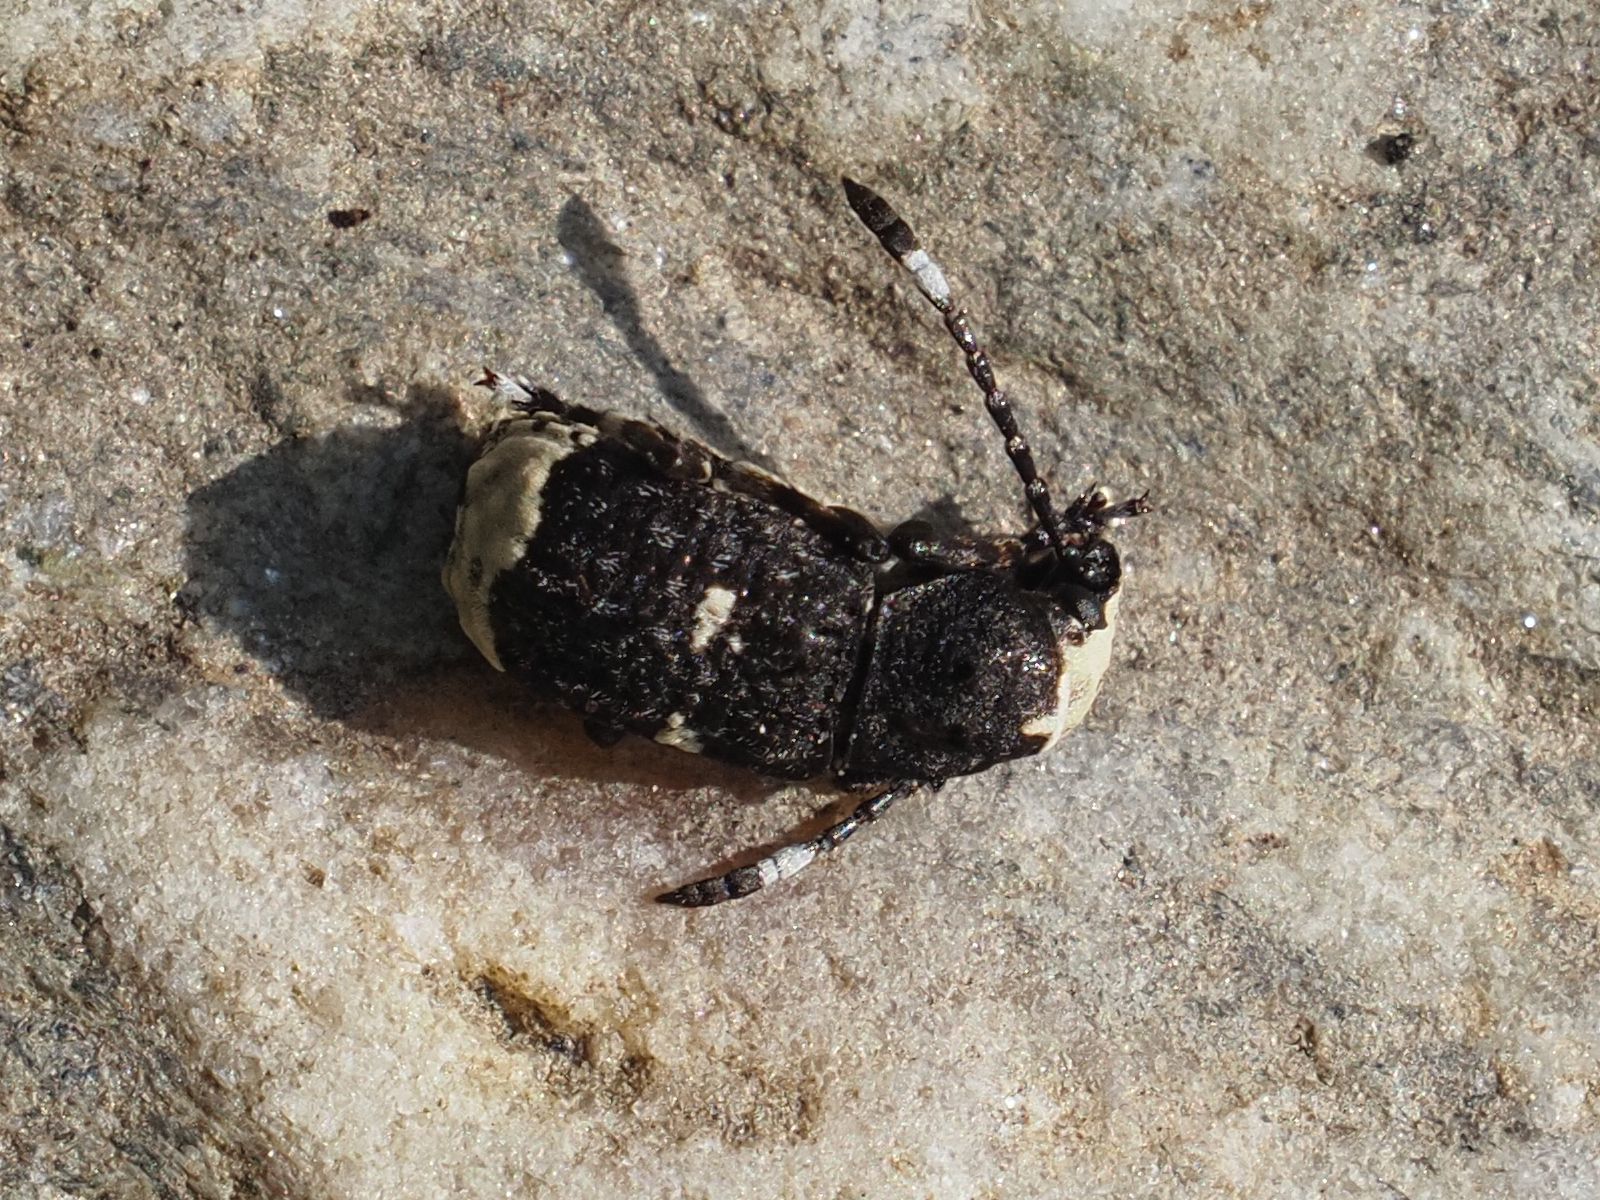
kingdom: Animalia
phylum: Arthropoda
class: Insecta
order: Coleoptera
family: Anthribidae
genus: Platystomos
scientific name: Platystomos albinus
